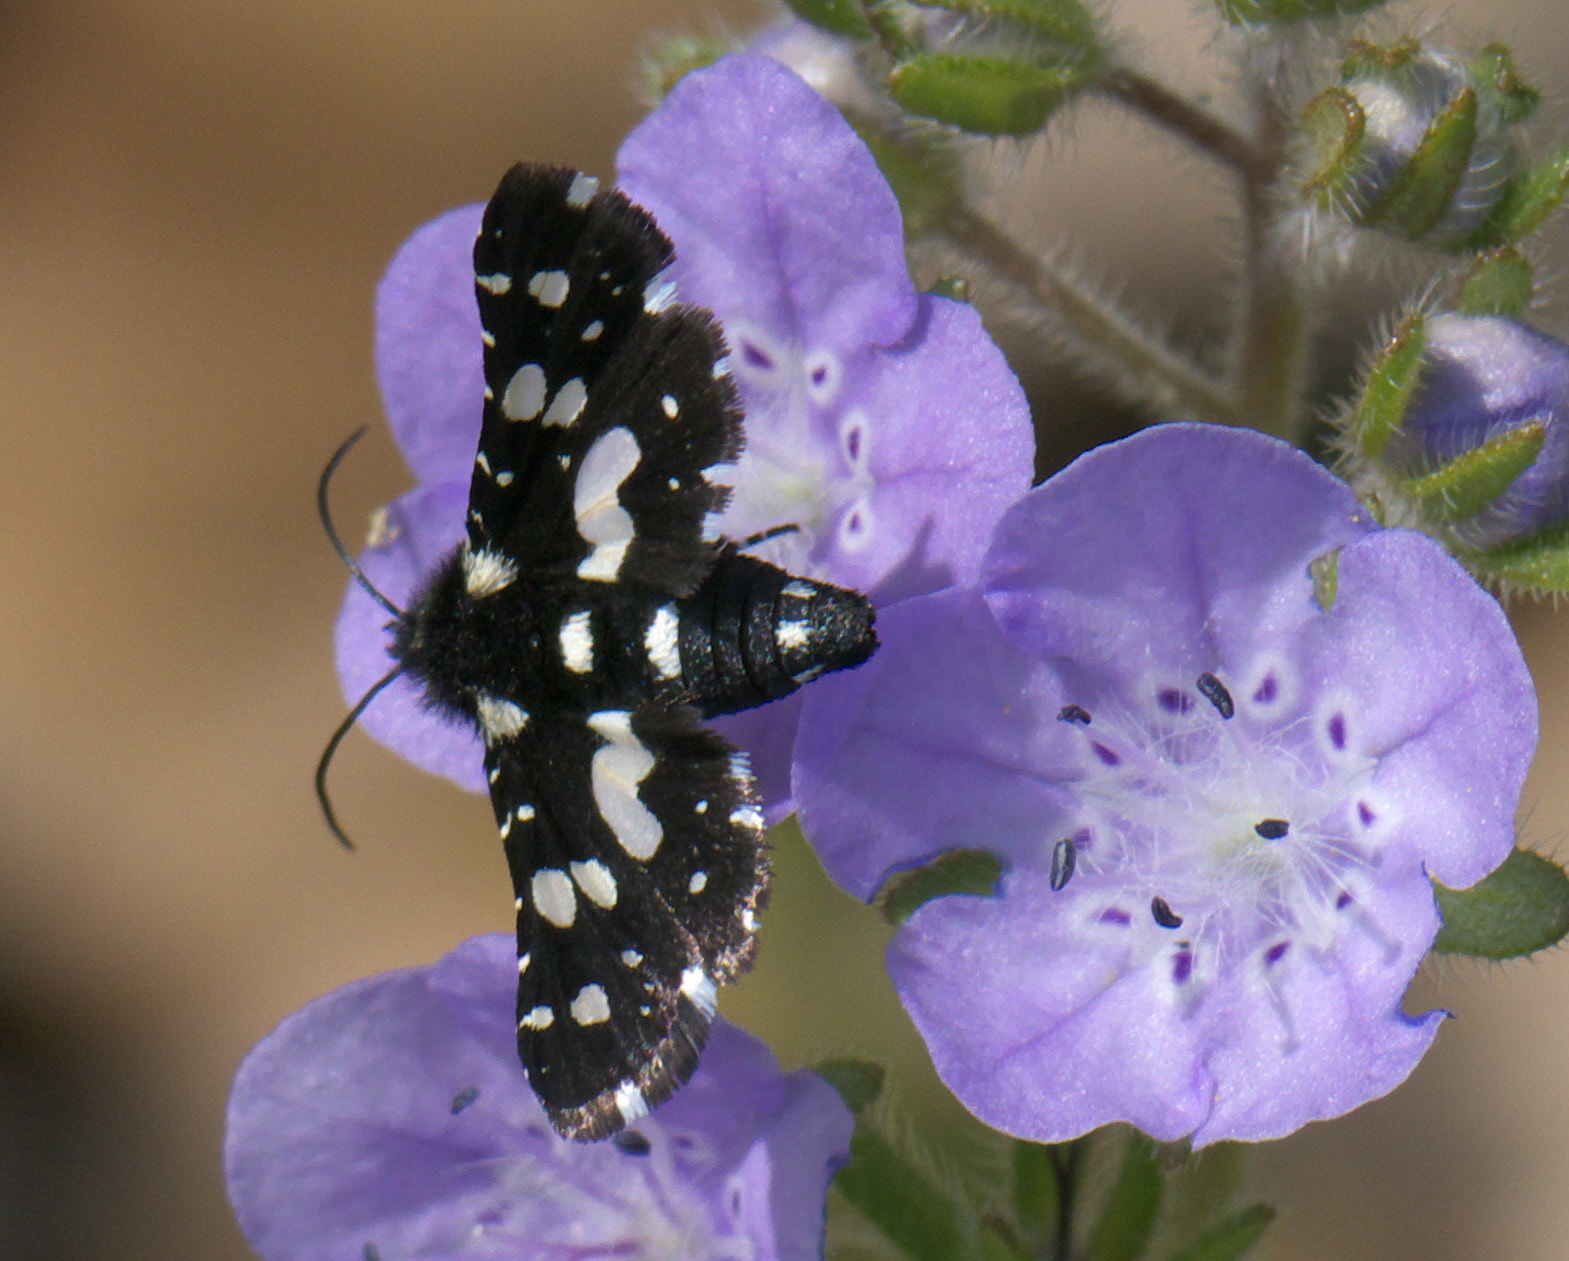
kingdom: Animalia
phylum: Arthropoda
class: Insecta
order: Lepidoptera
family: Thyrididae
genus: Pseudothyris
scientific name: Pseudothyris sepulchralis
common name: Mournful thyris moth
